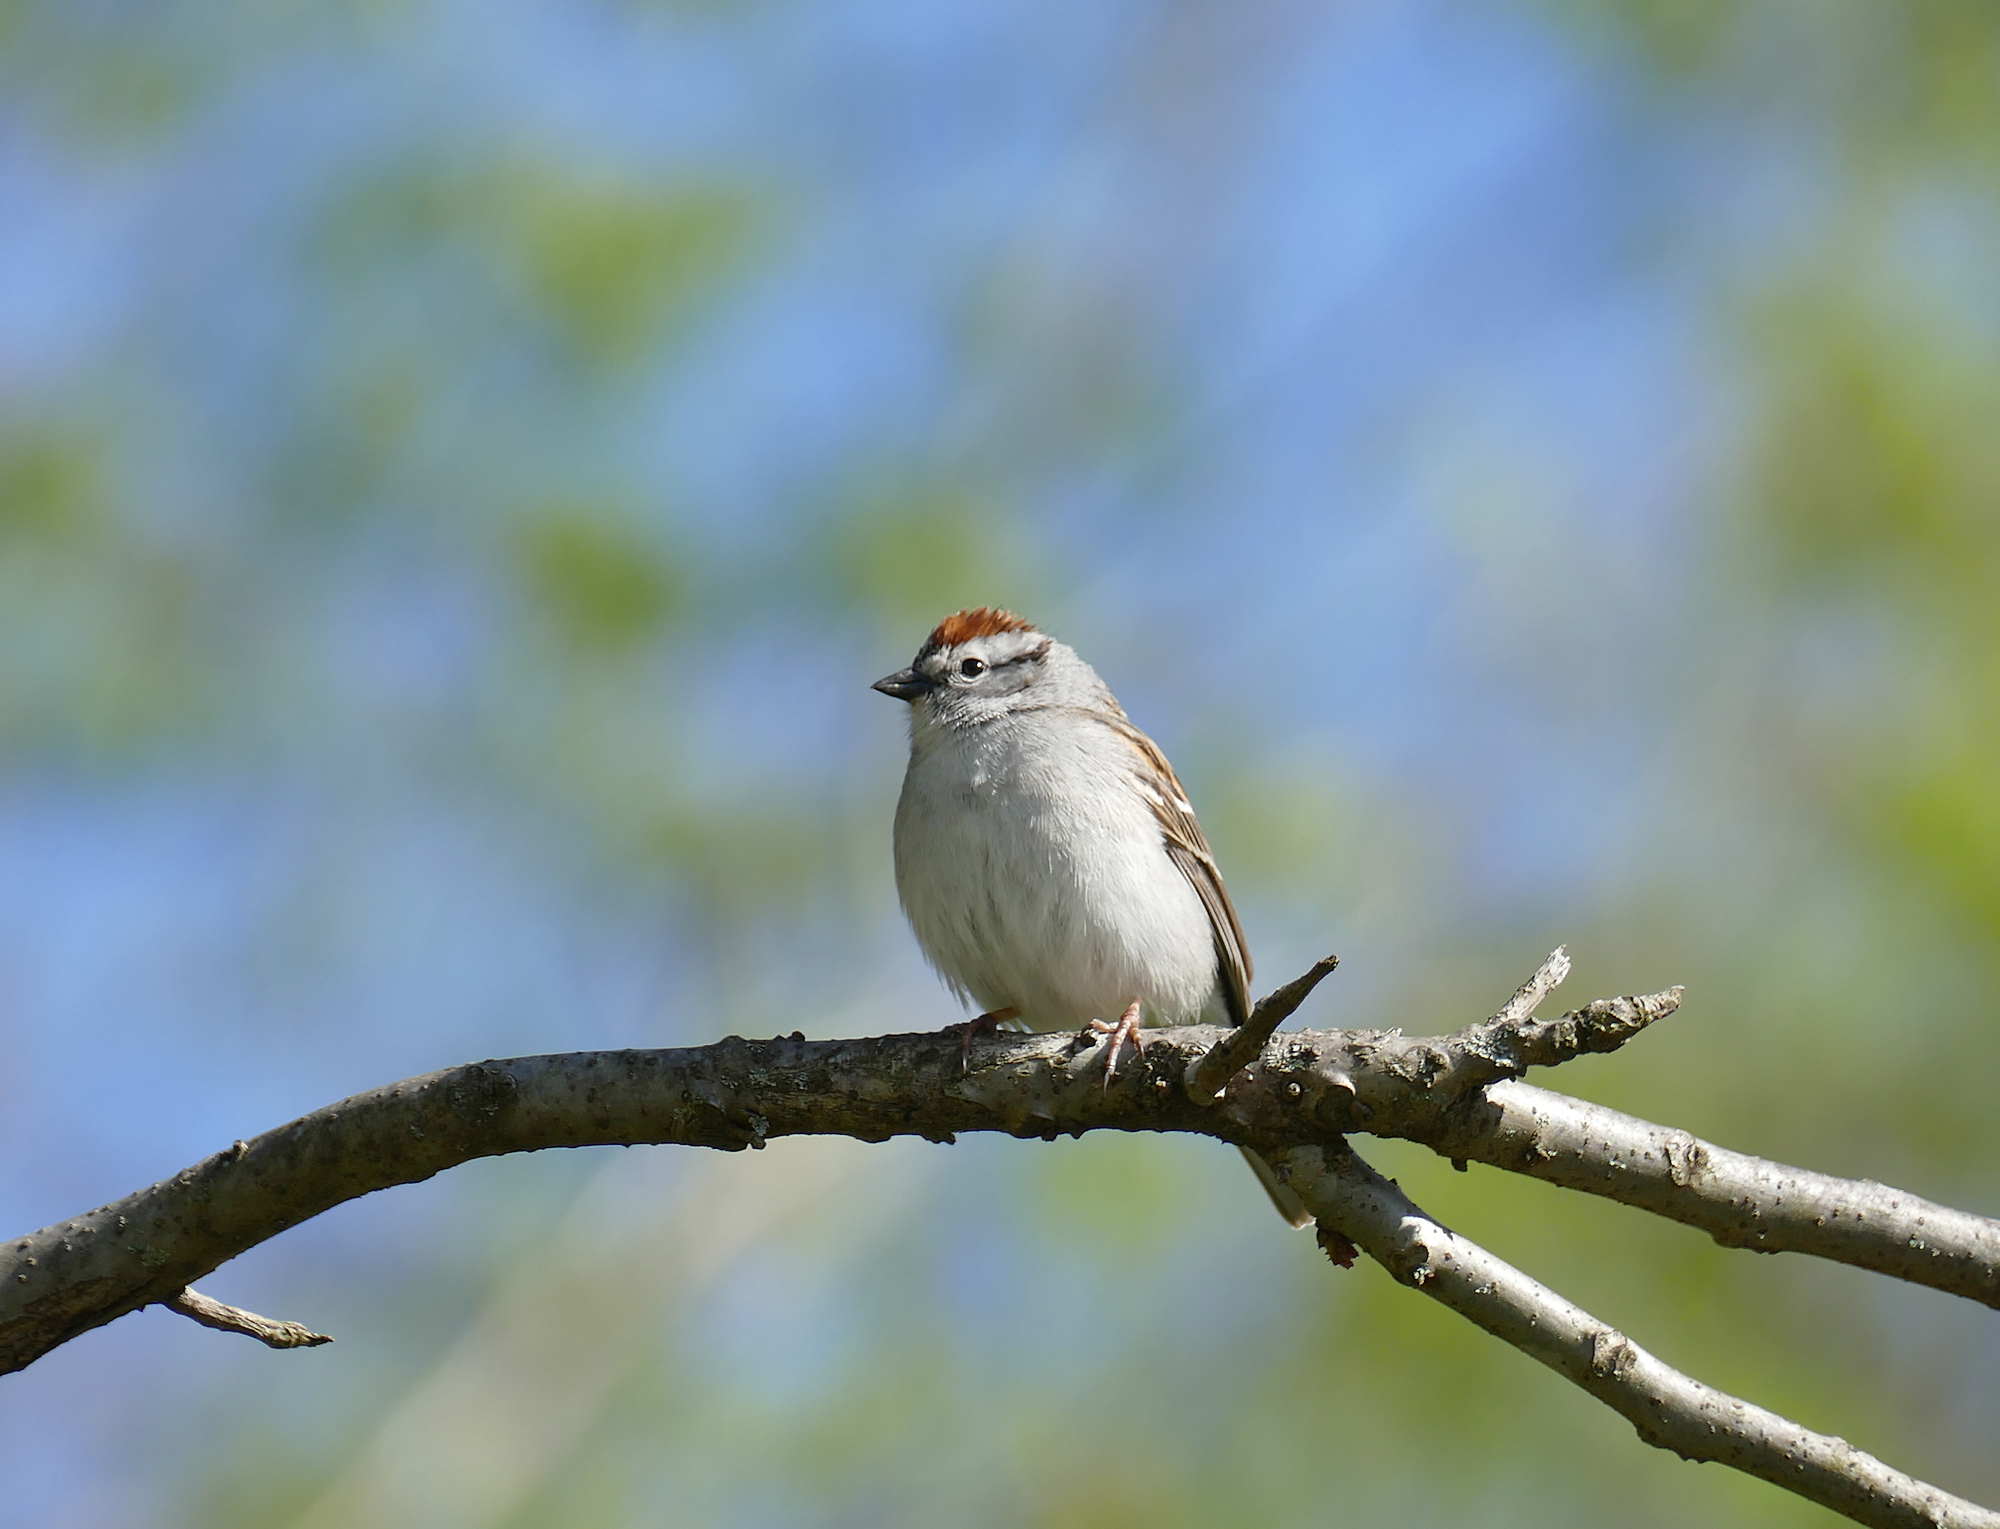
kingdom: Animalia
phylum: Chordata
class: Aves
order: Passeriformes
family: Passerellidae
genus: Spizella
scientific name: Spizella passerina
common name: Chipping sparrow
